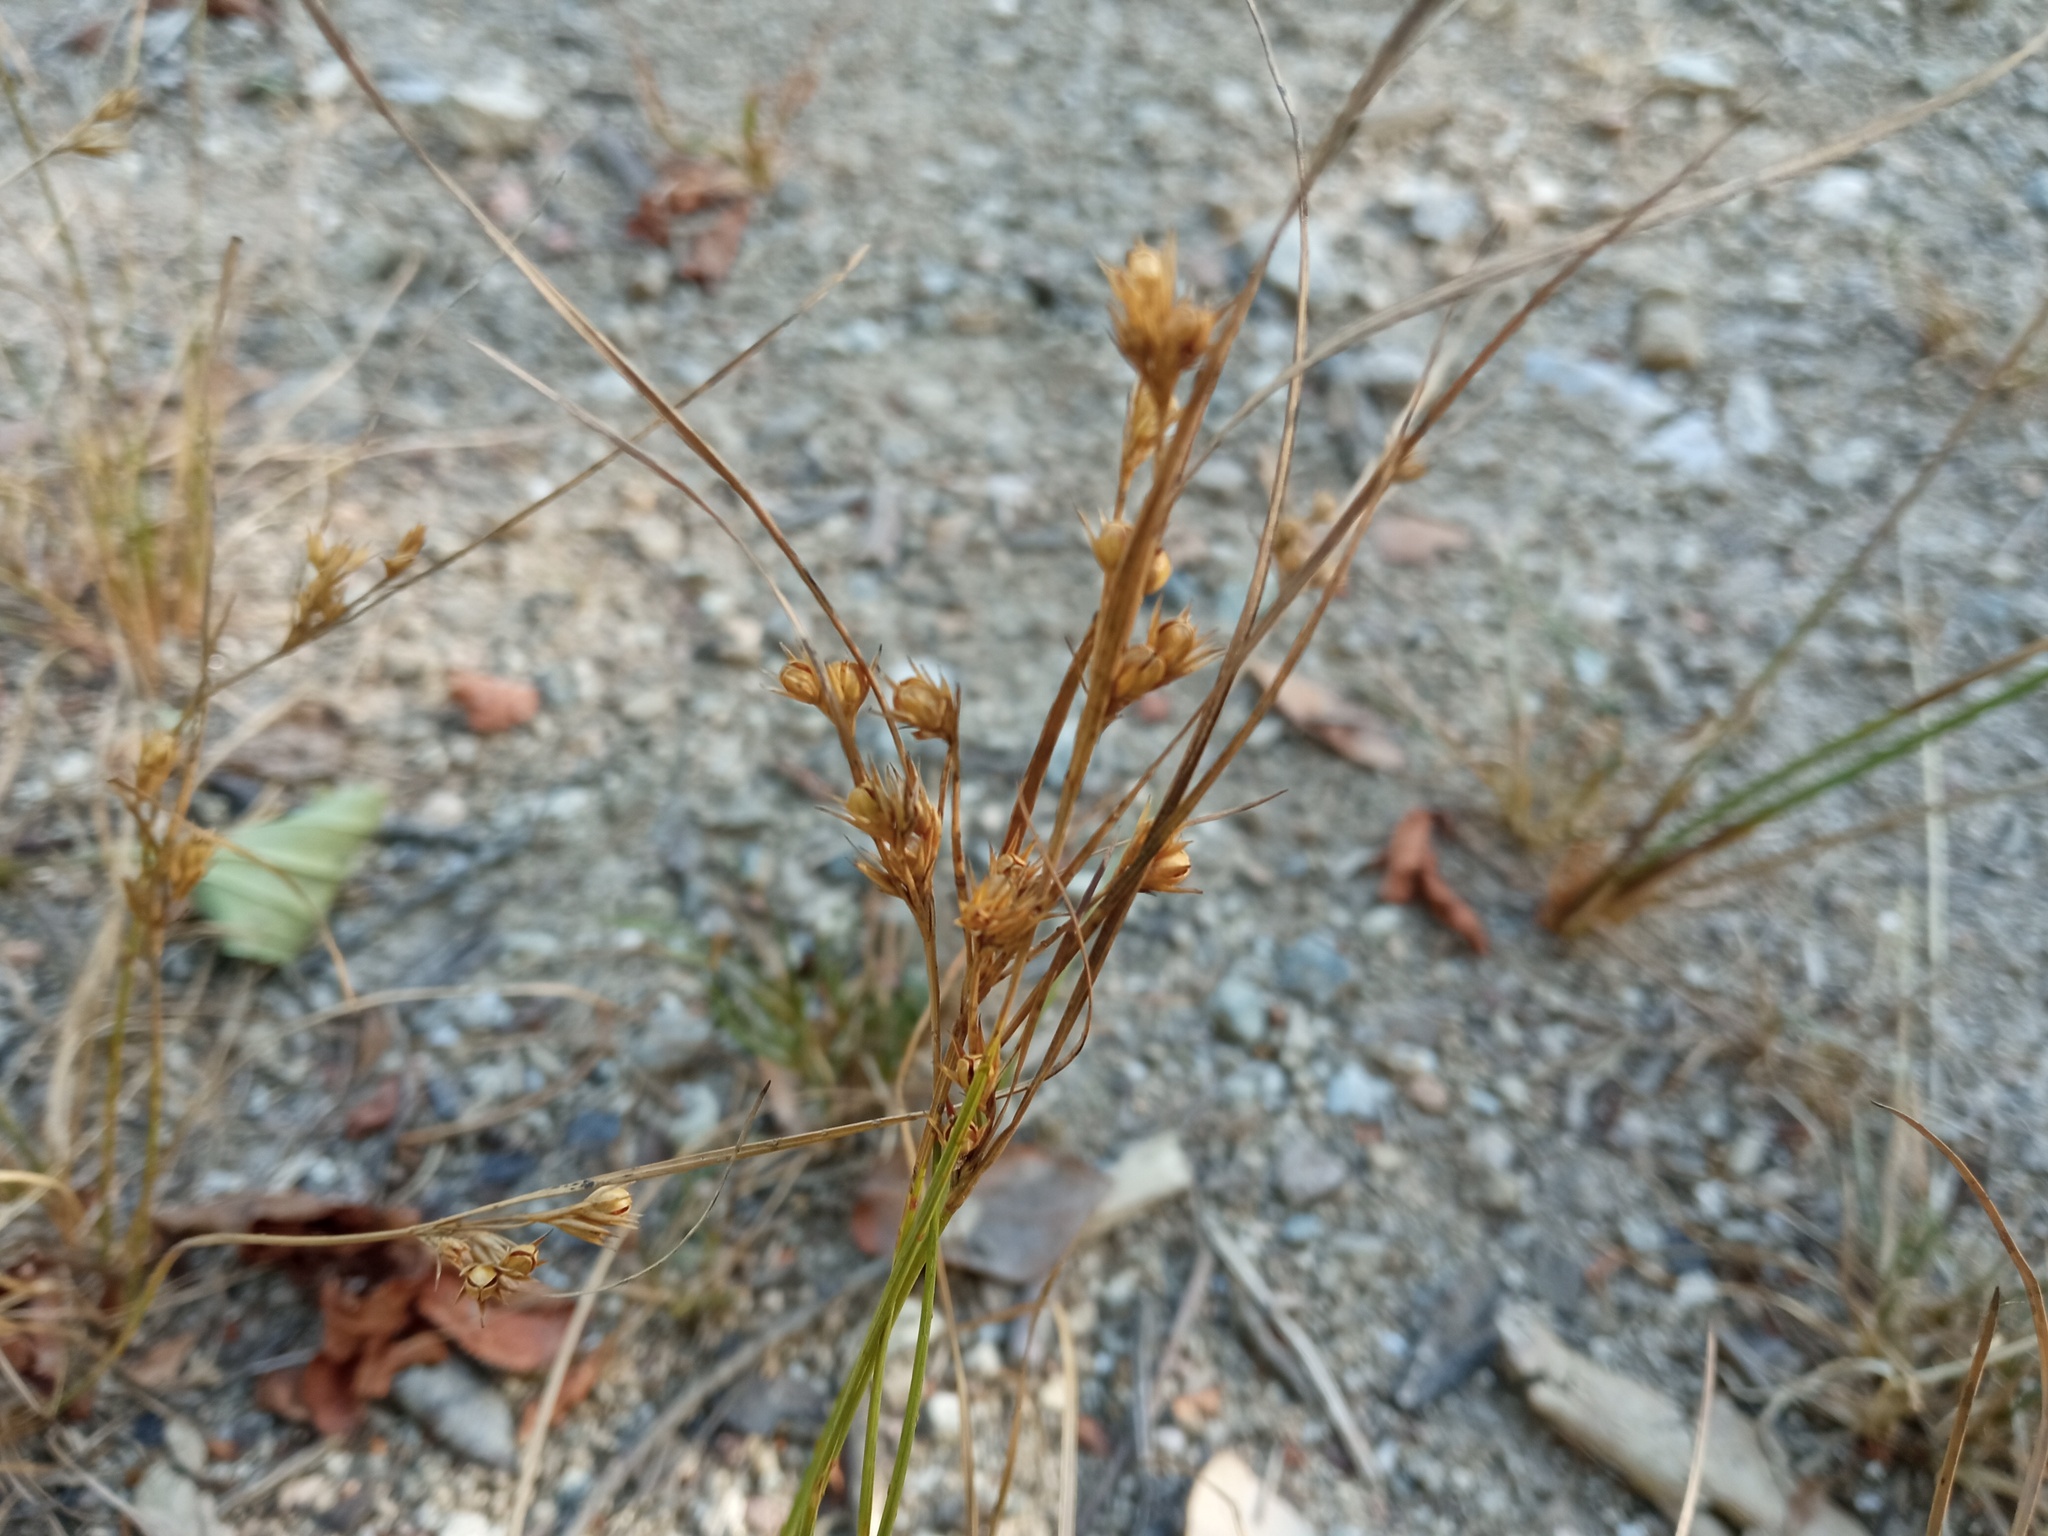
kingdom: Plantae
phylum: Tracheophyta
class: Liliopsida
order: Poales
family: Juncaceae
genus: Juncus
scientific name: Juncus tenuis
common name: Slender rush
